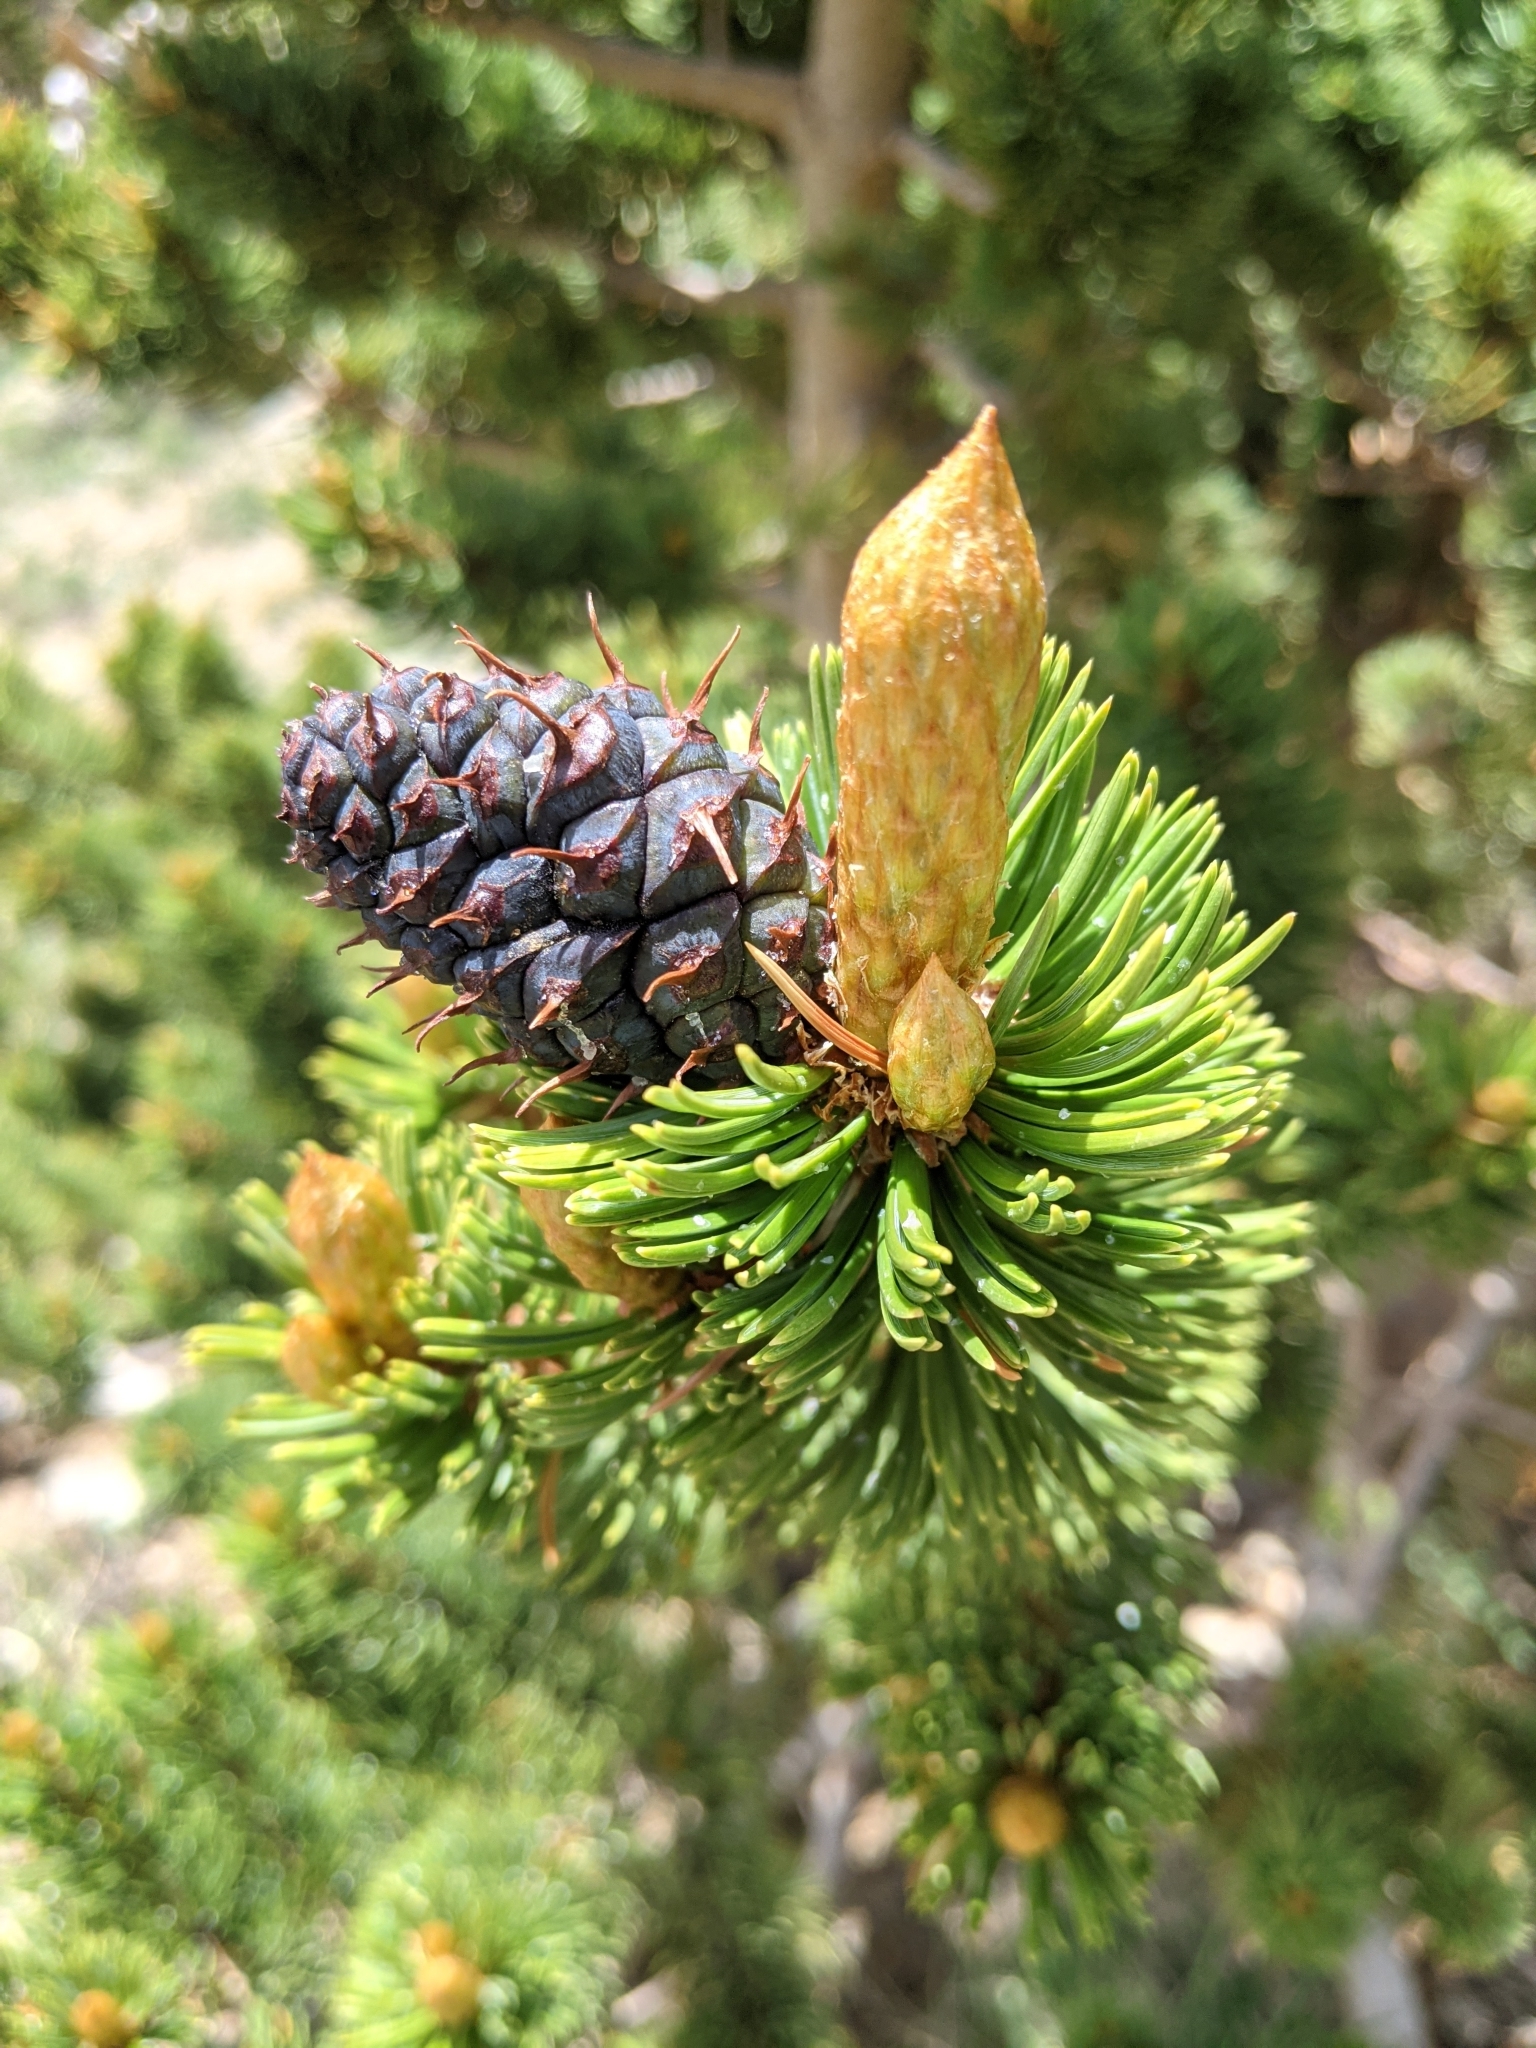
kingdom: Plantae
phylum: Tracheophyta
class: Pinopsida
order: Pinales
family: Pinaceae
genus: Pinus
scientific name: Pinus aristata
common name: Colorado bristlecone pine
